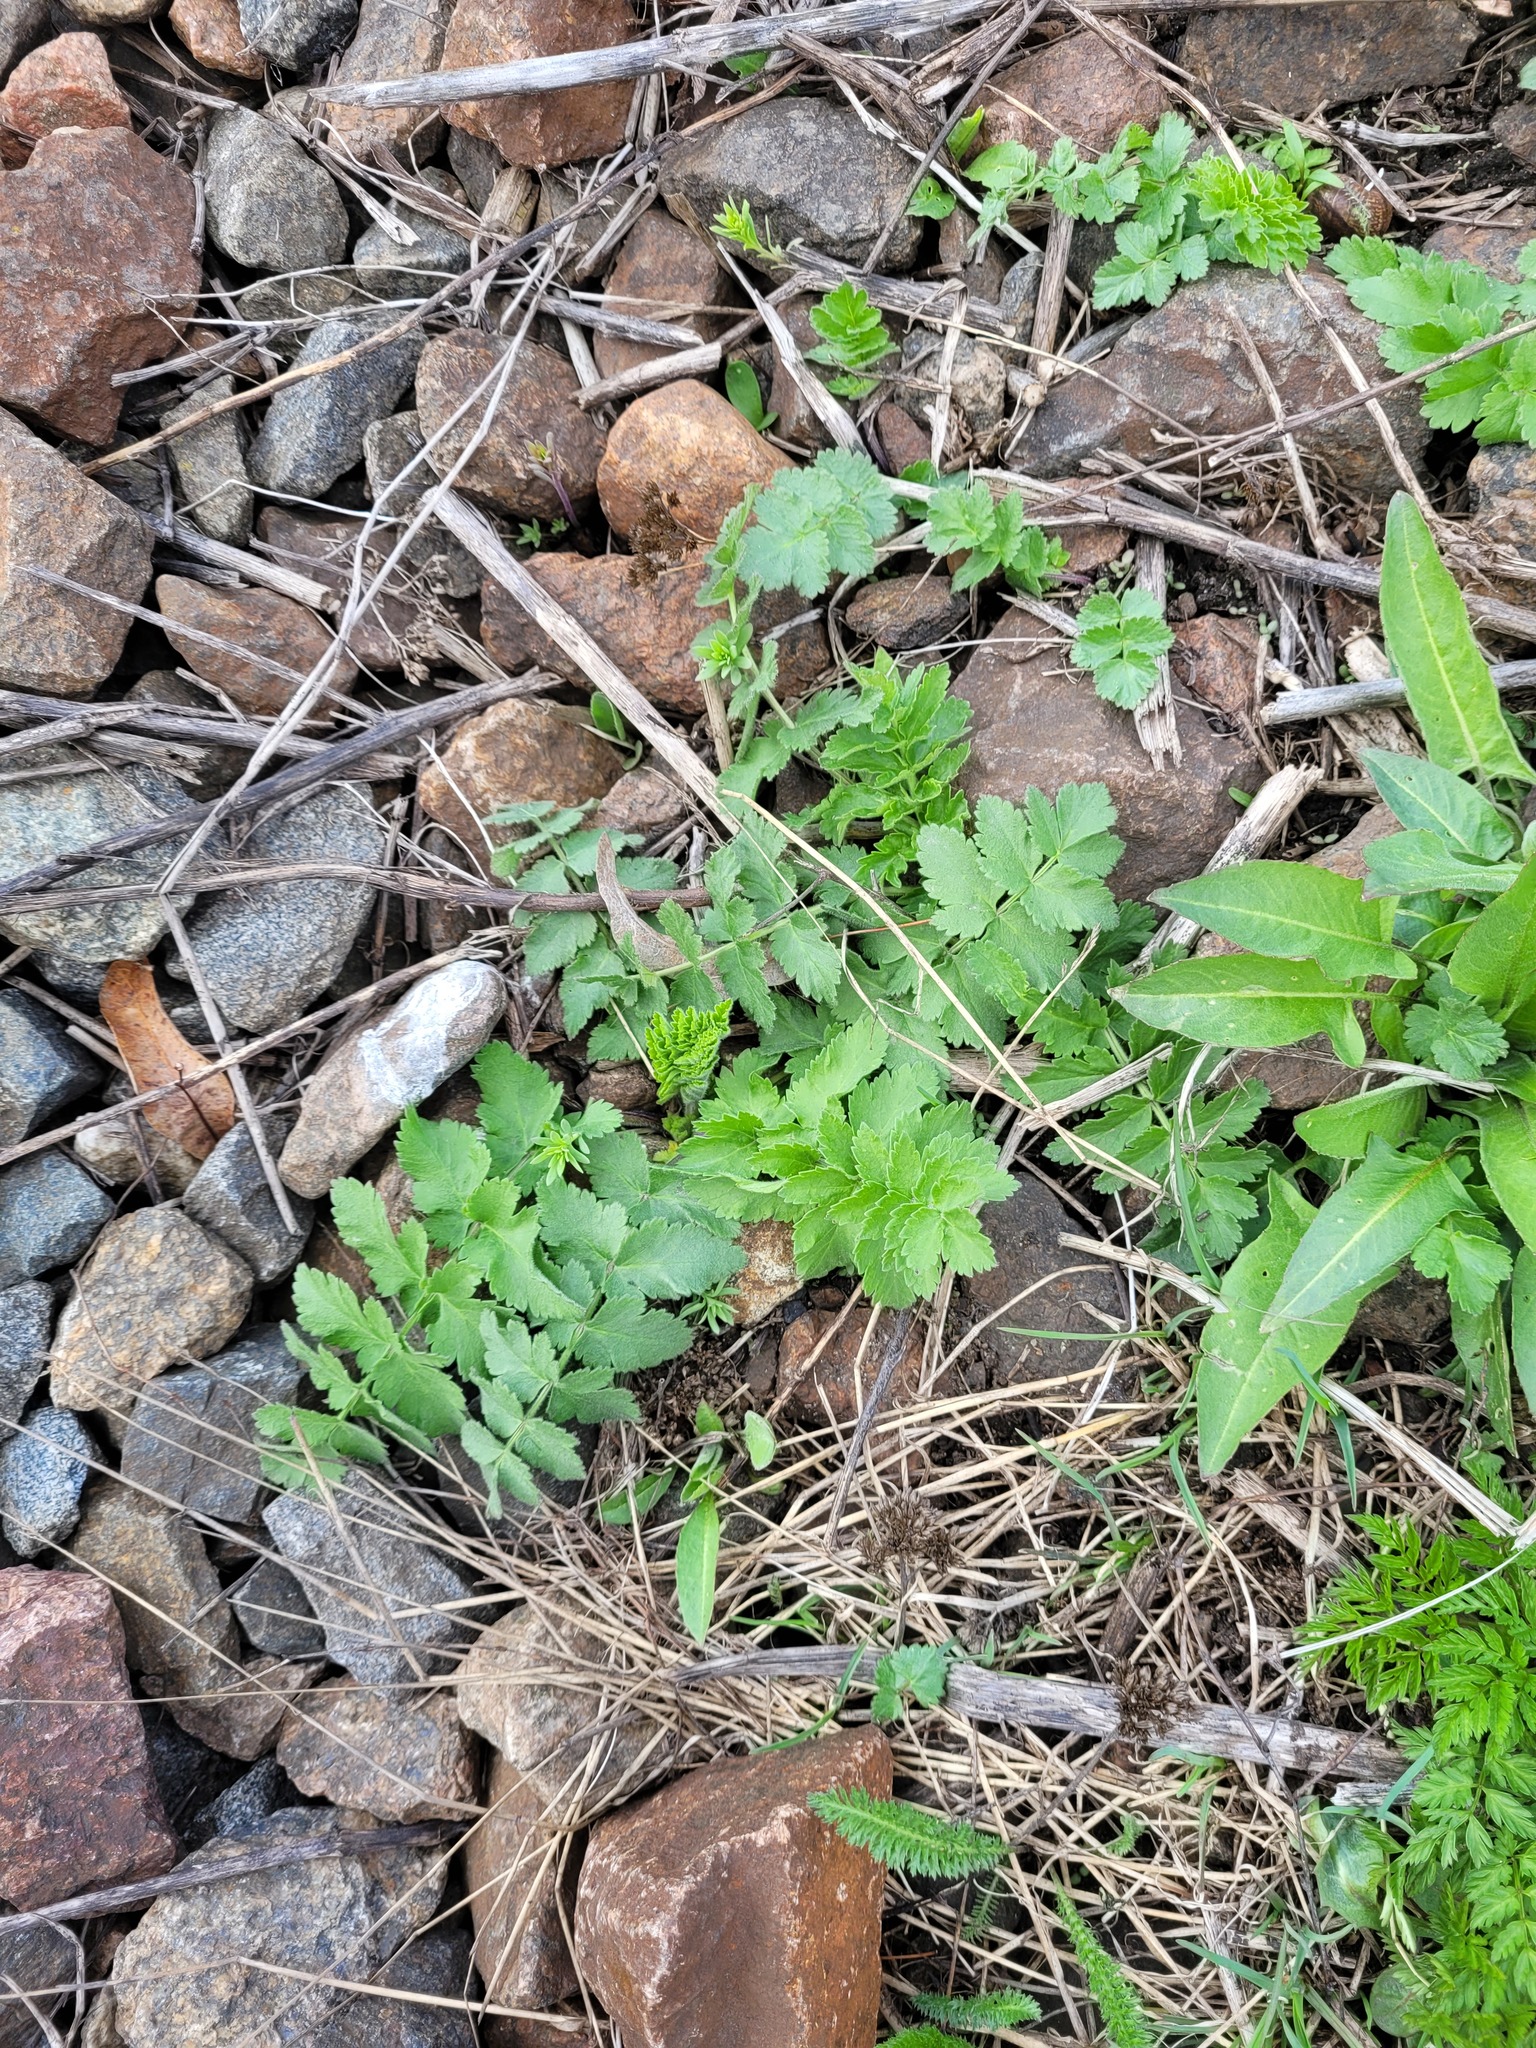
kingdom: Plantae
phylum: Tracheophyta
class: Magnoliopsida
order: Apiales
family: Apiaceae
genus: Pastinaca
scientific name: Pastinaca sativa
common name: Wild parsnip
